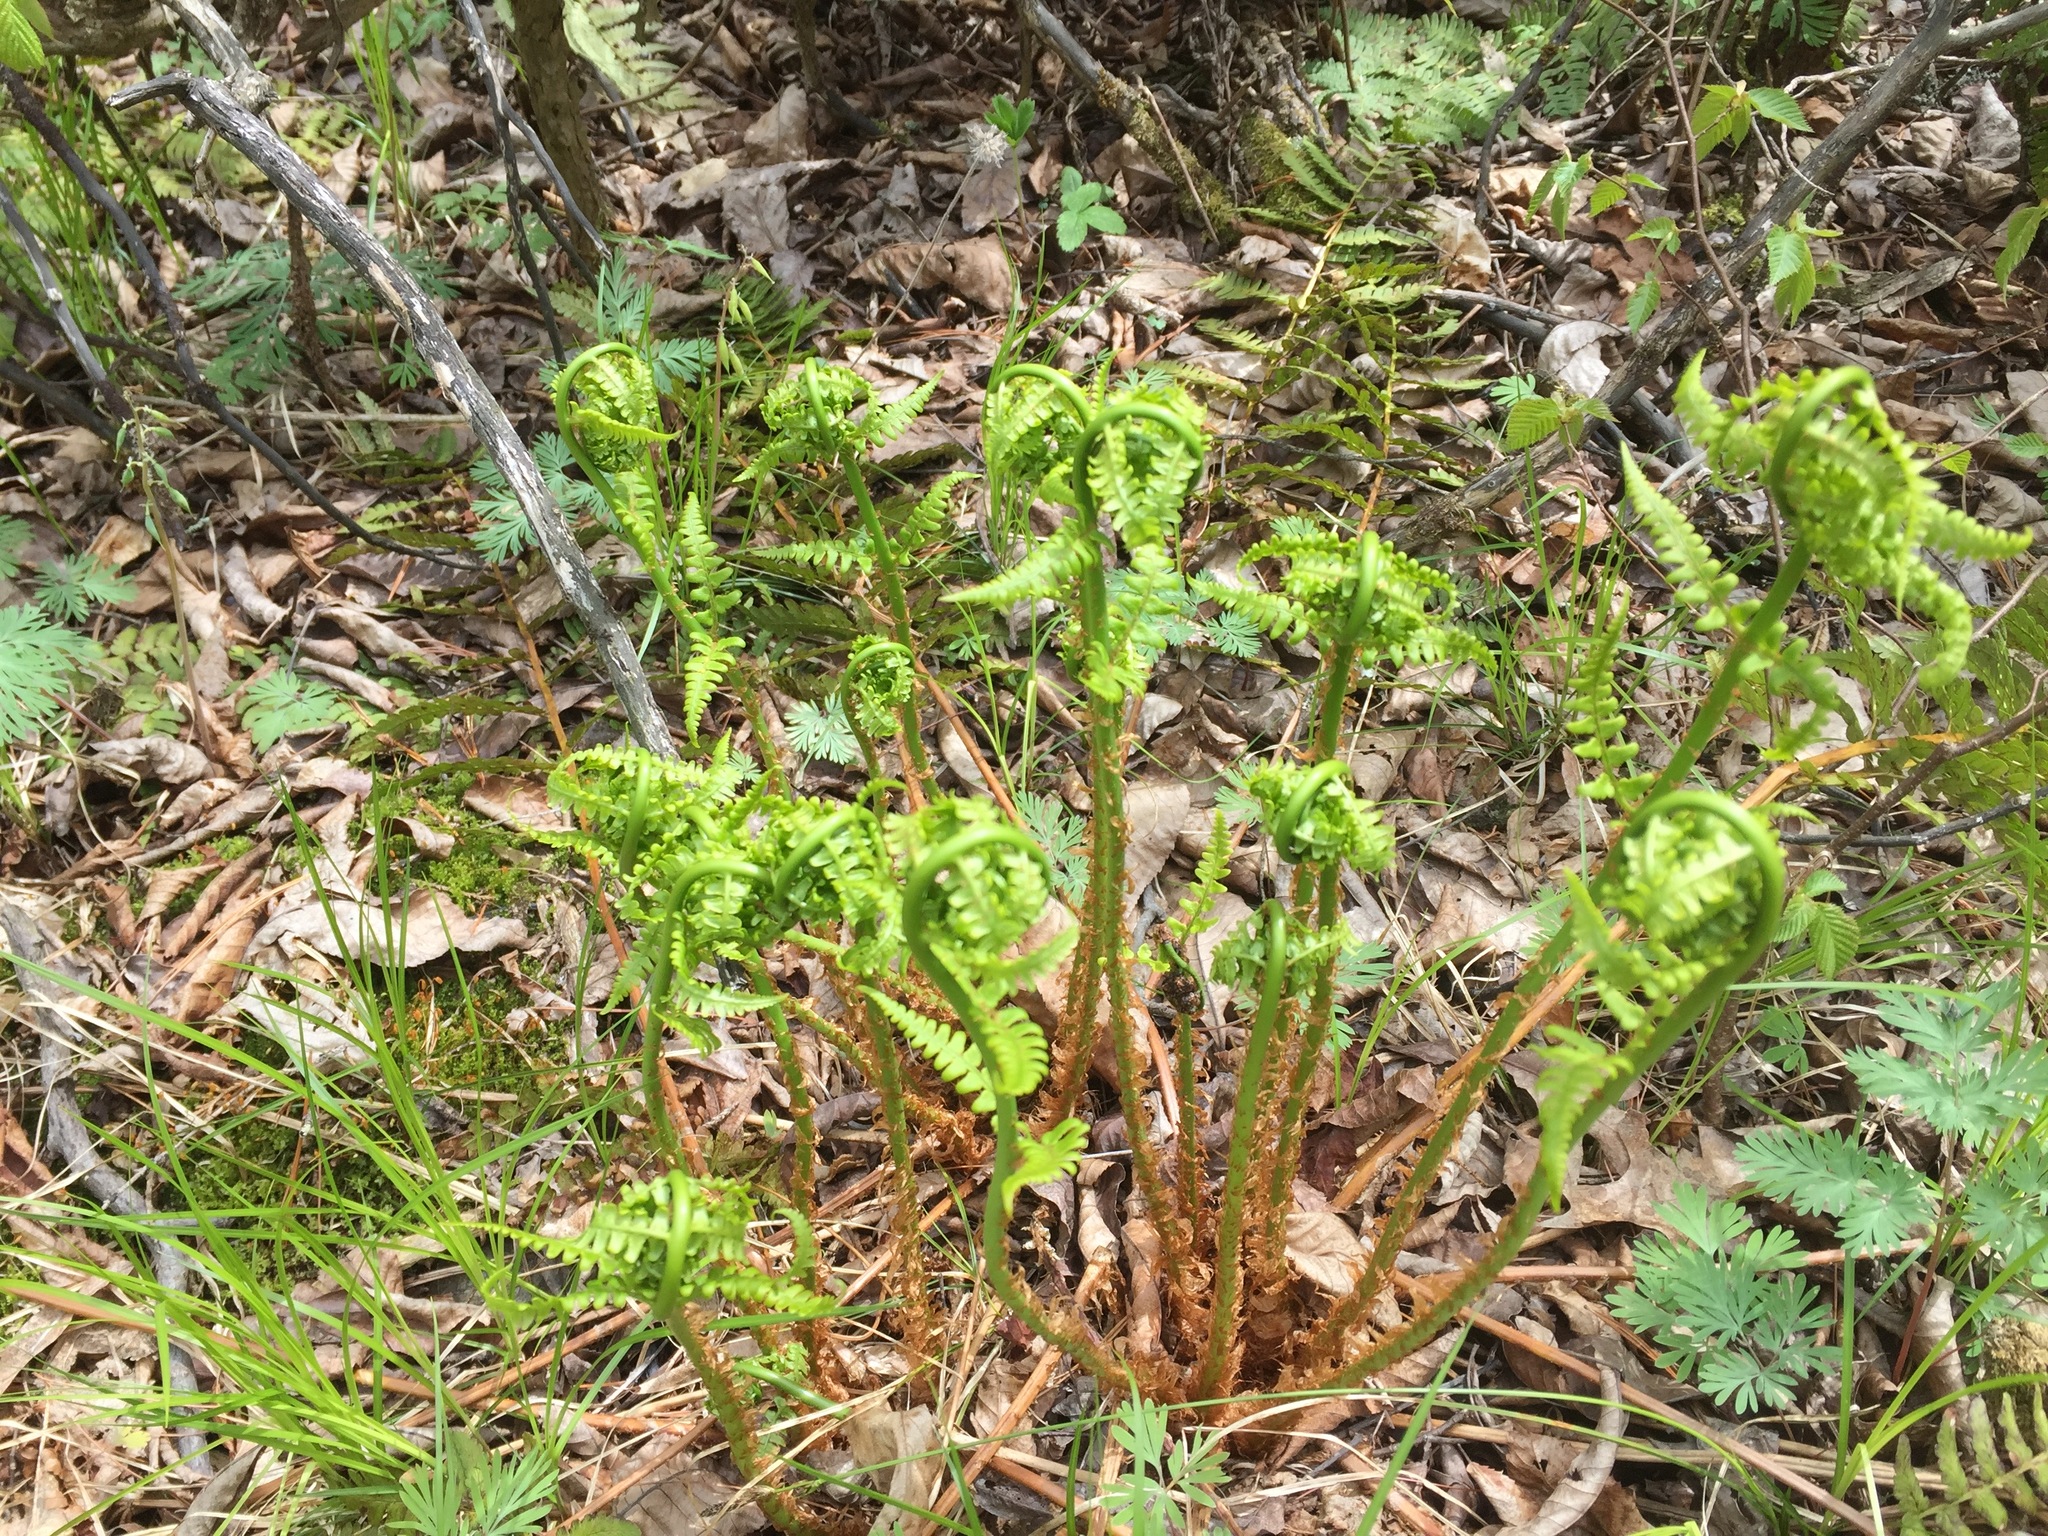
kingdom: Plantae
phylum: Tracheophyta
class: Polypodiopsida
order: Polypodiales
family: Dryopteridaceae
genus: Dryopteris
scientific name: Dryopteris marginalis
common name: Marginal wood fern
